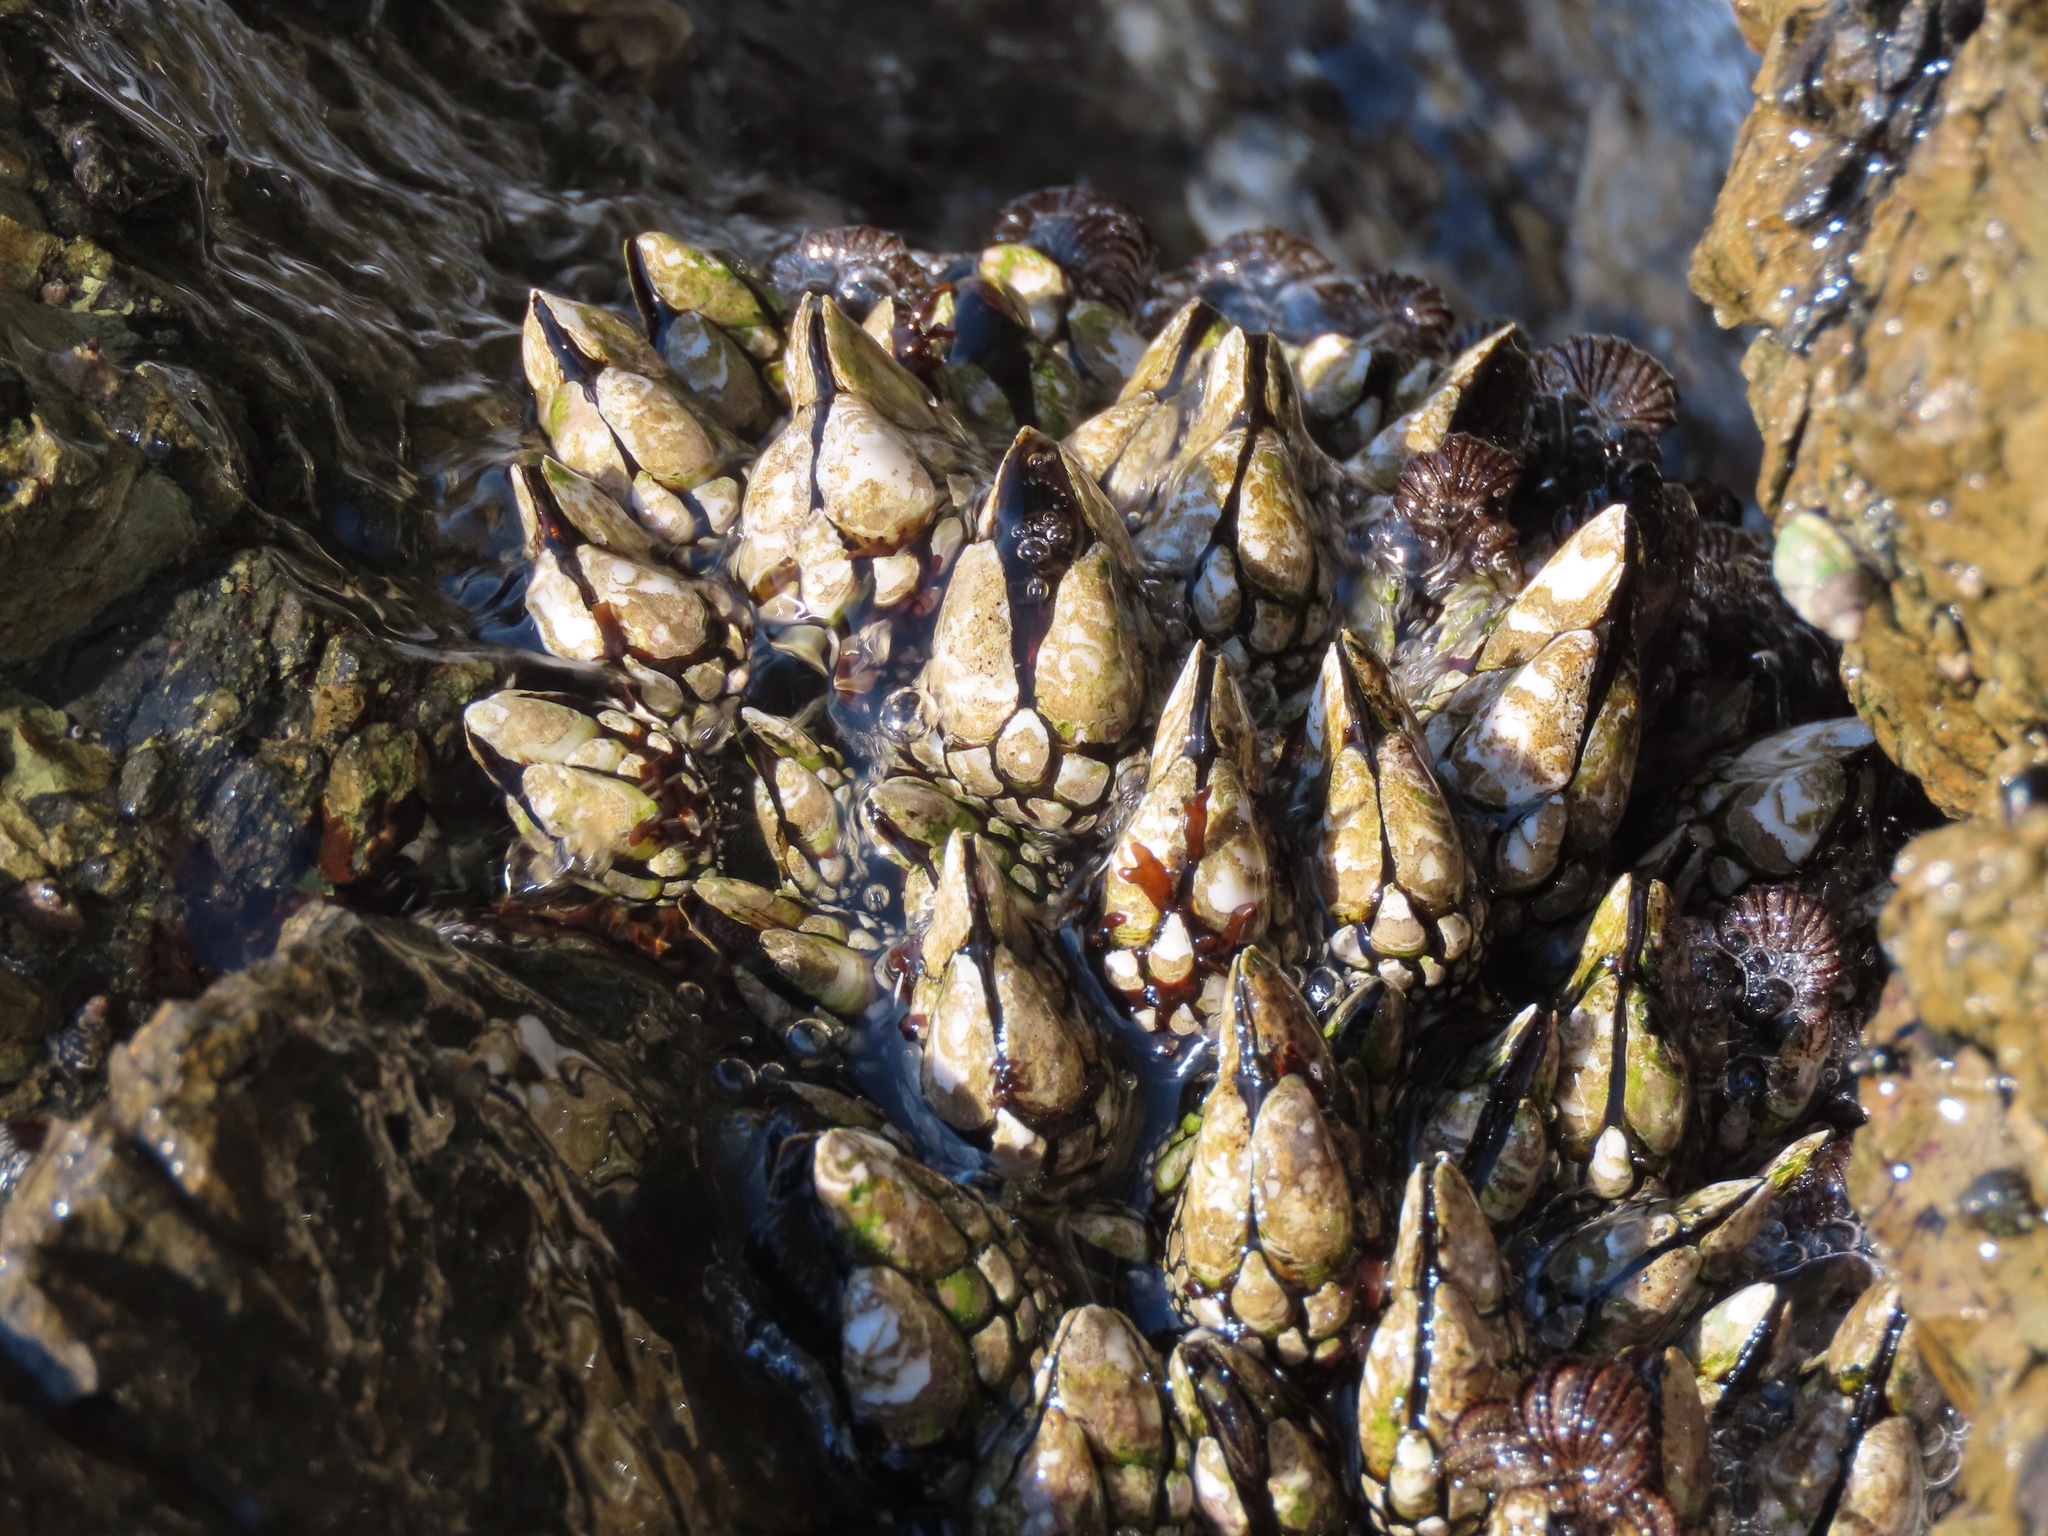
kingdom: Animalia
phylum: Arthropoda
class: Maxillopoda
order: Pedunculata
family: Pollicipedidae
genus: Pollicipes
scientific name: Pollicipes polymerus
